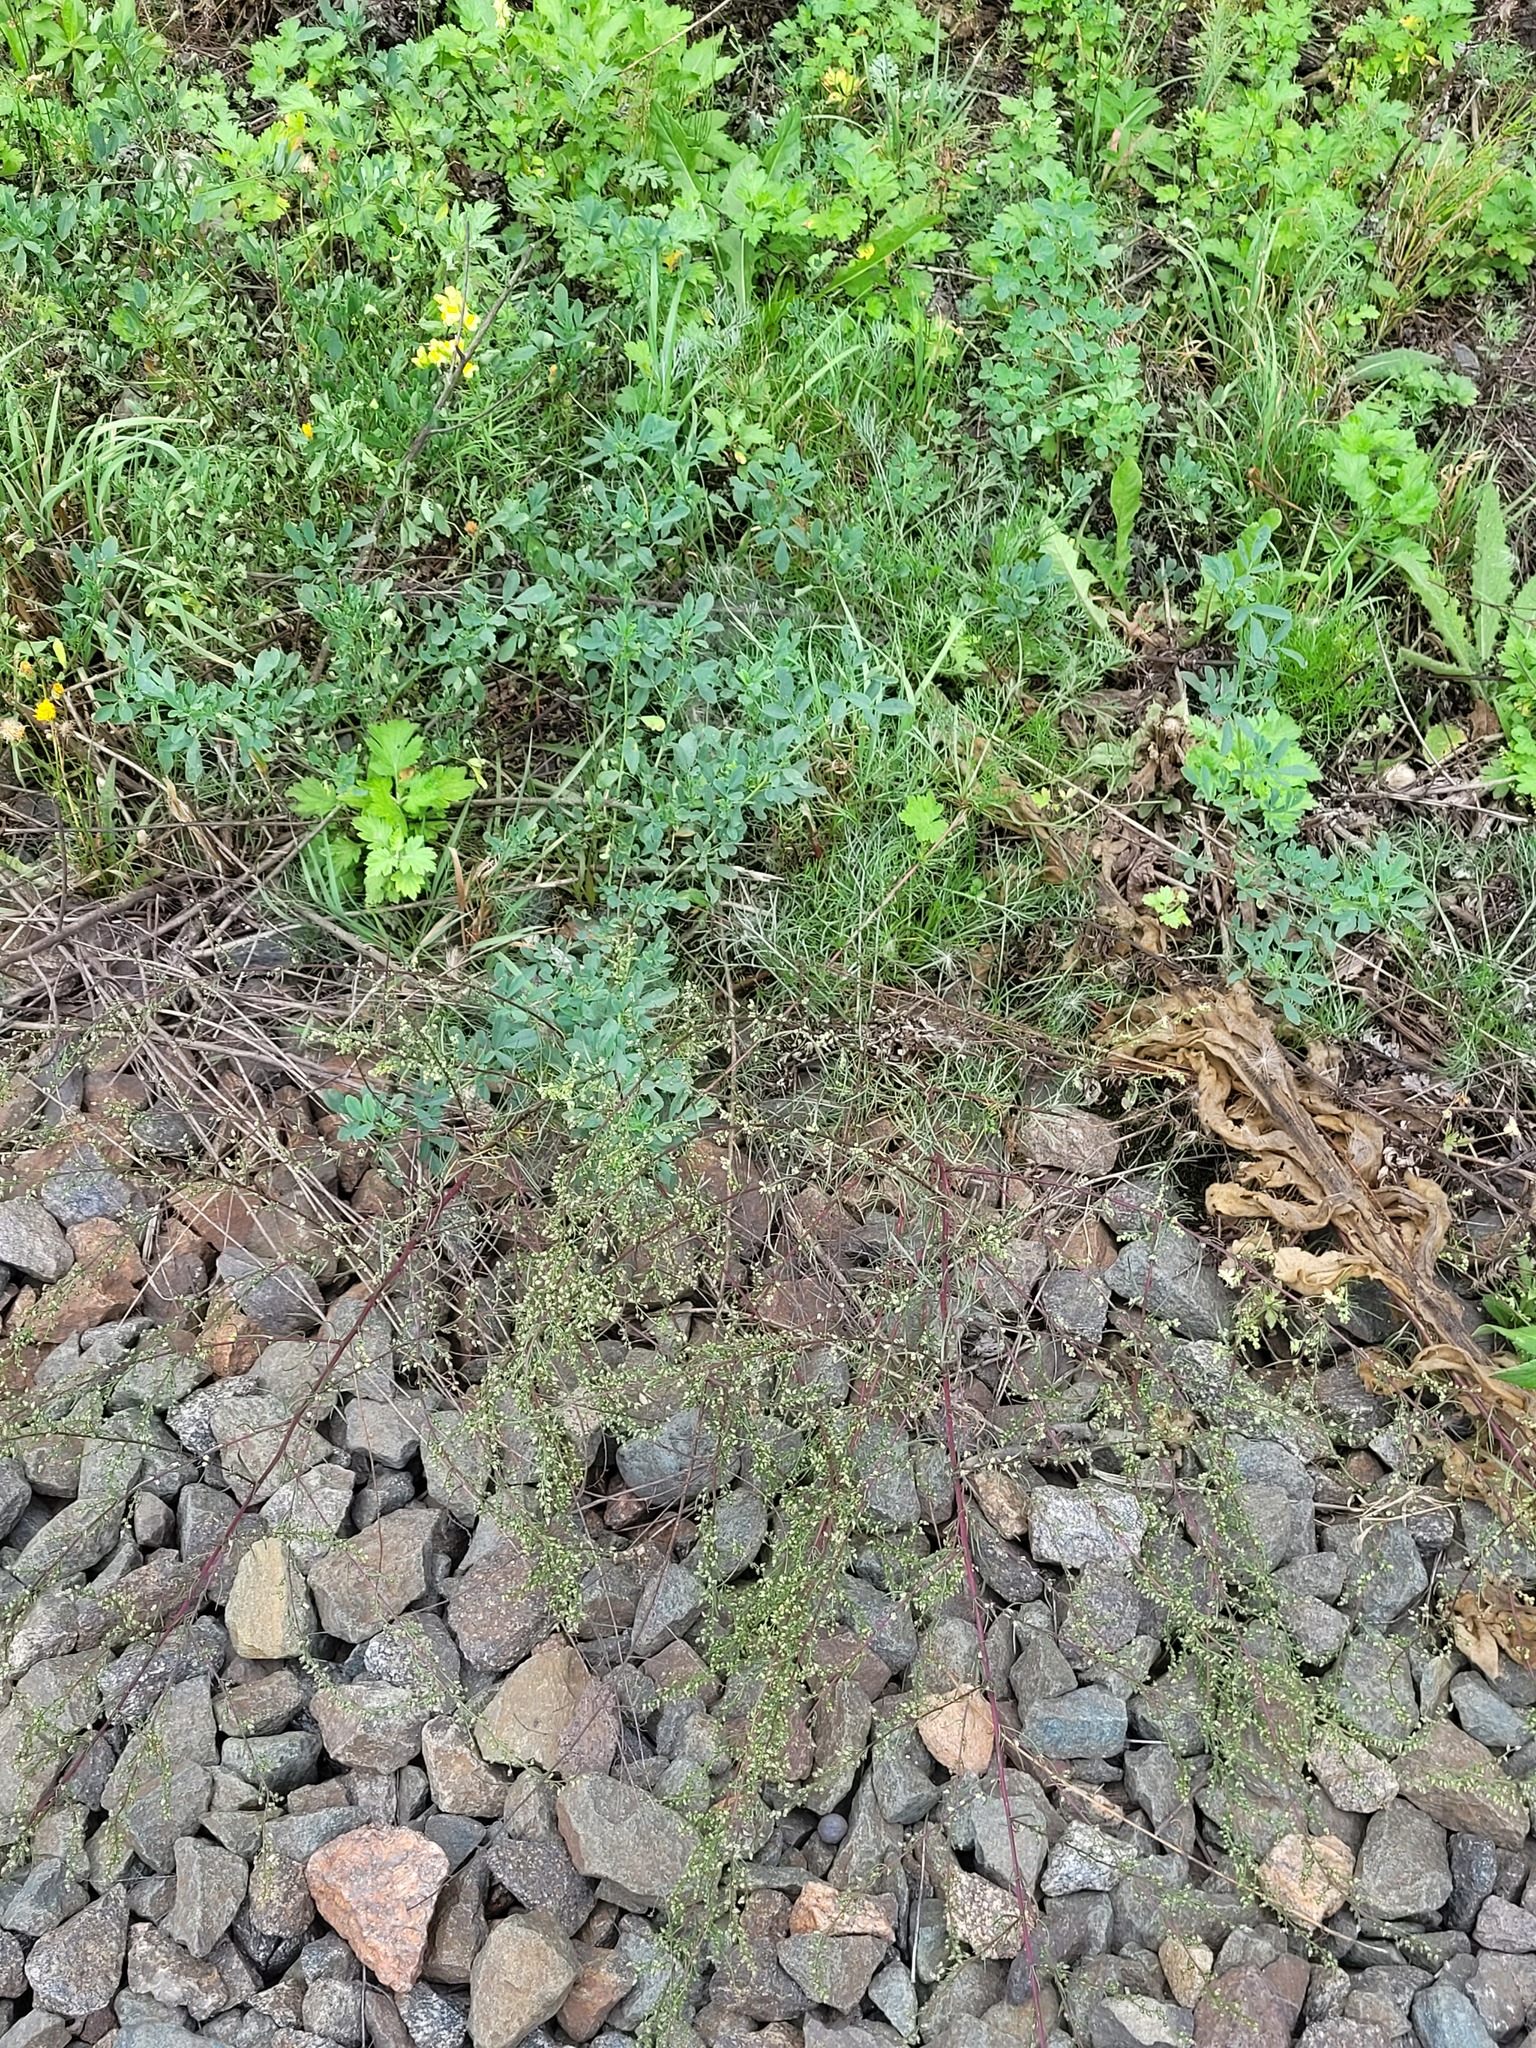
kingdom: Plantae
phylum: Tracheophyta
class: Magnoliopsida
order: Asterales
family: Asteraceae
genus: Artemisia
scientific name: Artemisia campestris
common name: Field wormwood
